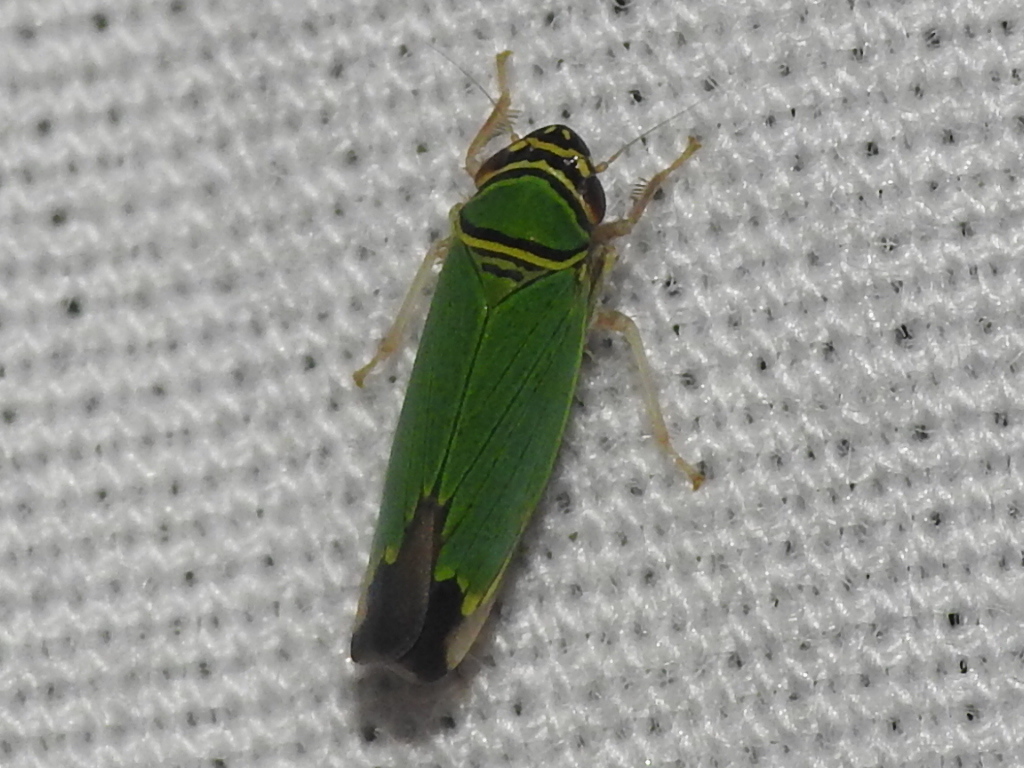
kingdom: Animalia
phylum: Arthropoda
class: Insecta
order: Hemiptera
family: Cicadellidae
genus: Tylozygus
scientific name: Tylozygus geometricus
